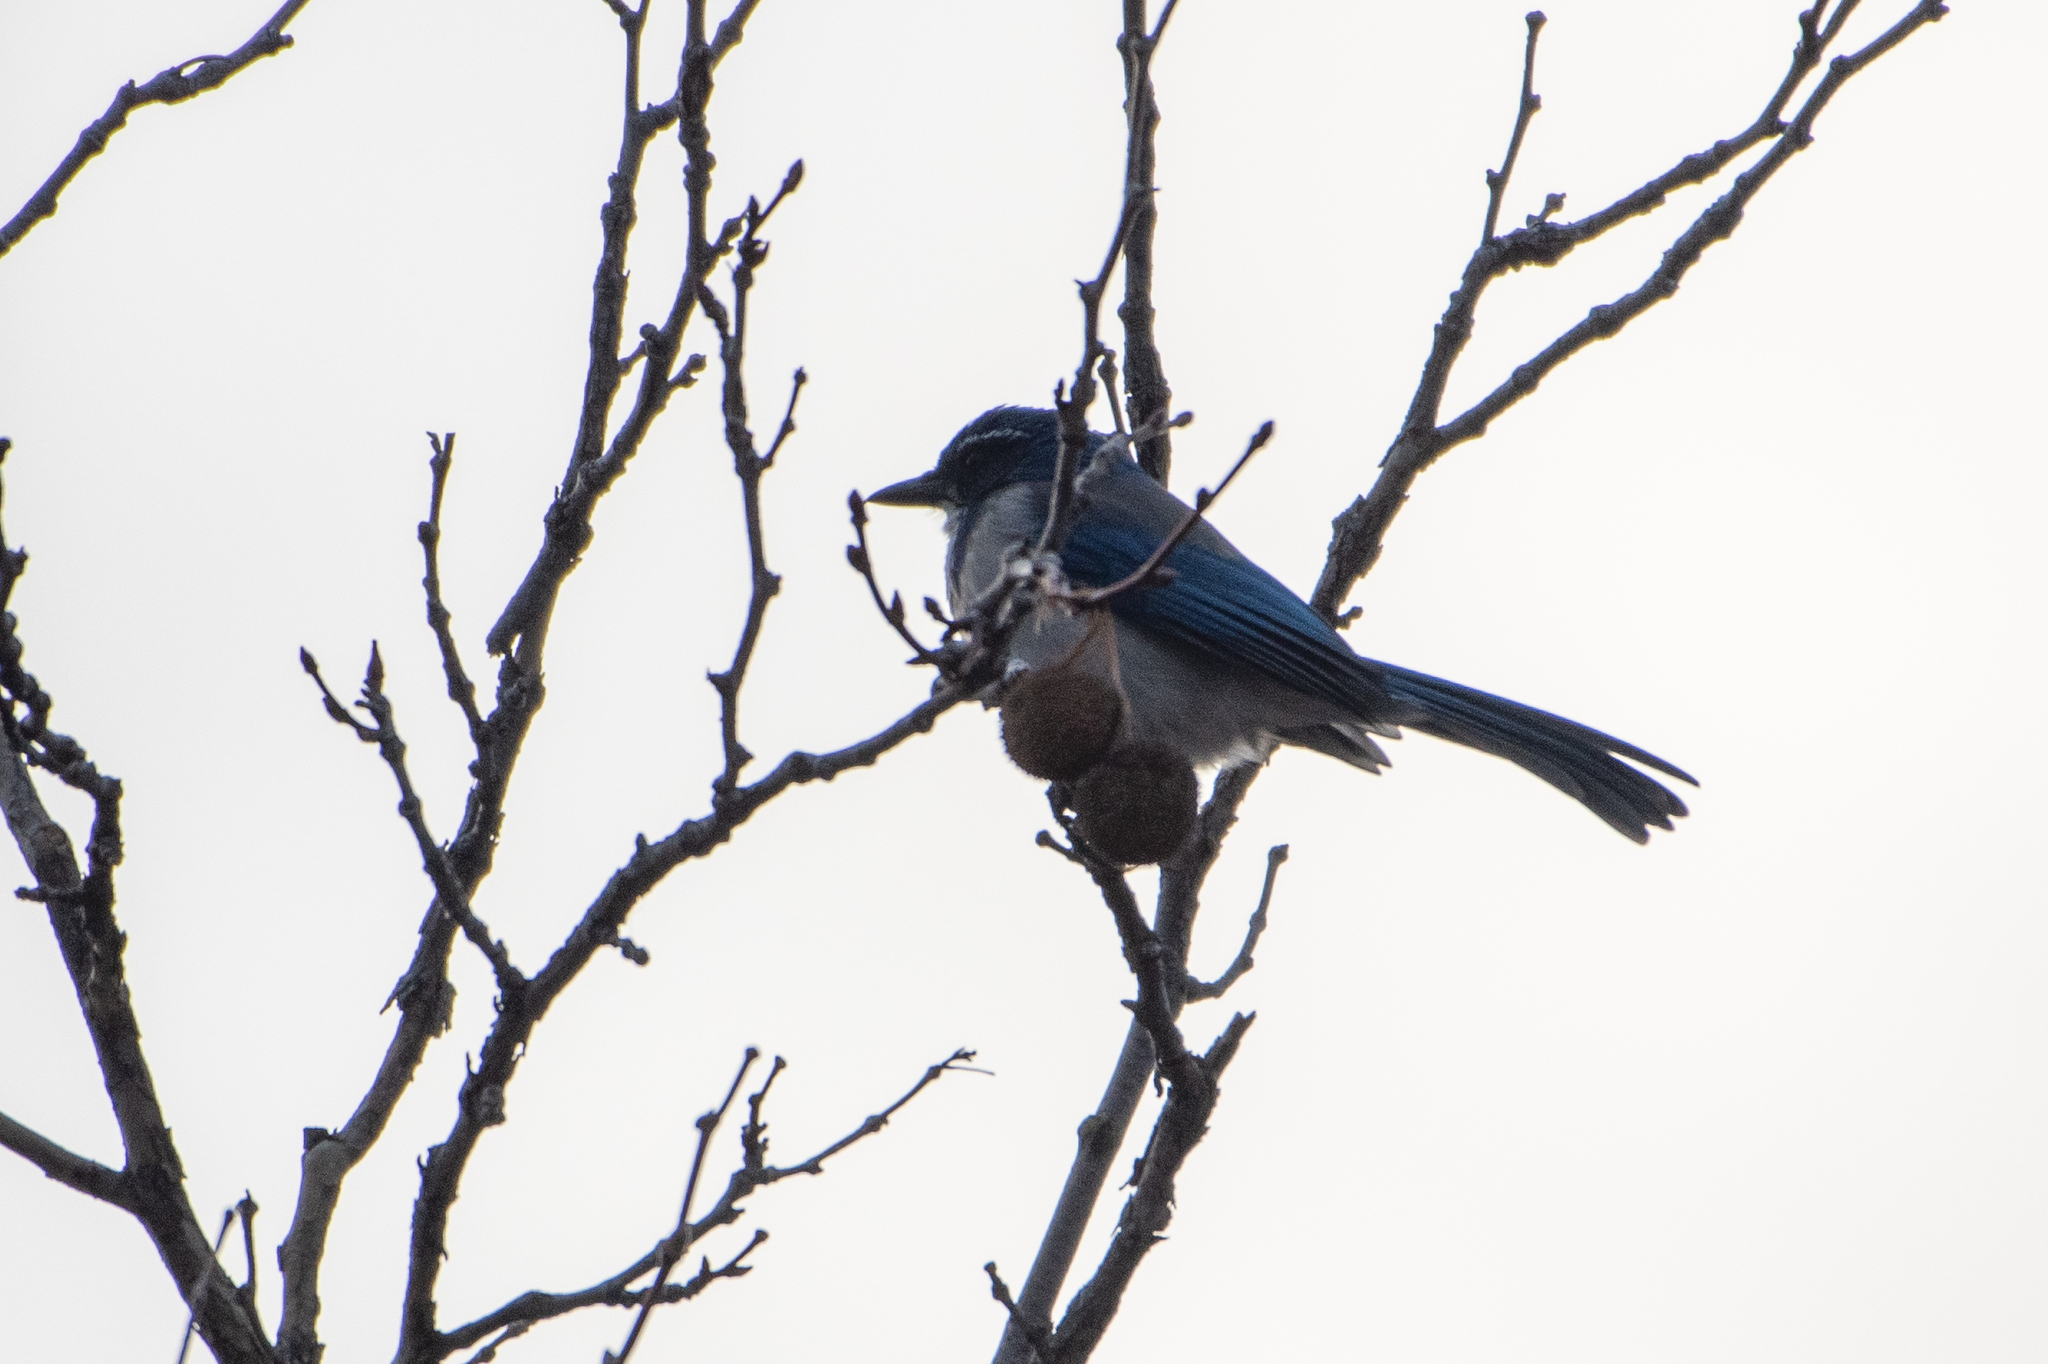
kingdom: Animalia
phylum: Chordata
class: Aves
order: Passeriformes
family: Corvidae
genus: Aphelocoma
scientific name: Aphelocoma californica
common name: California scrub-jay
